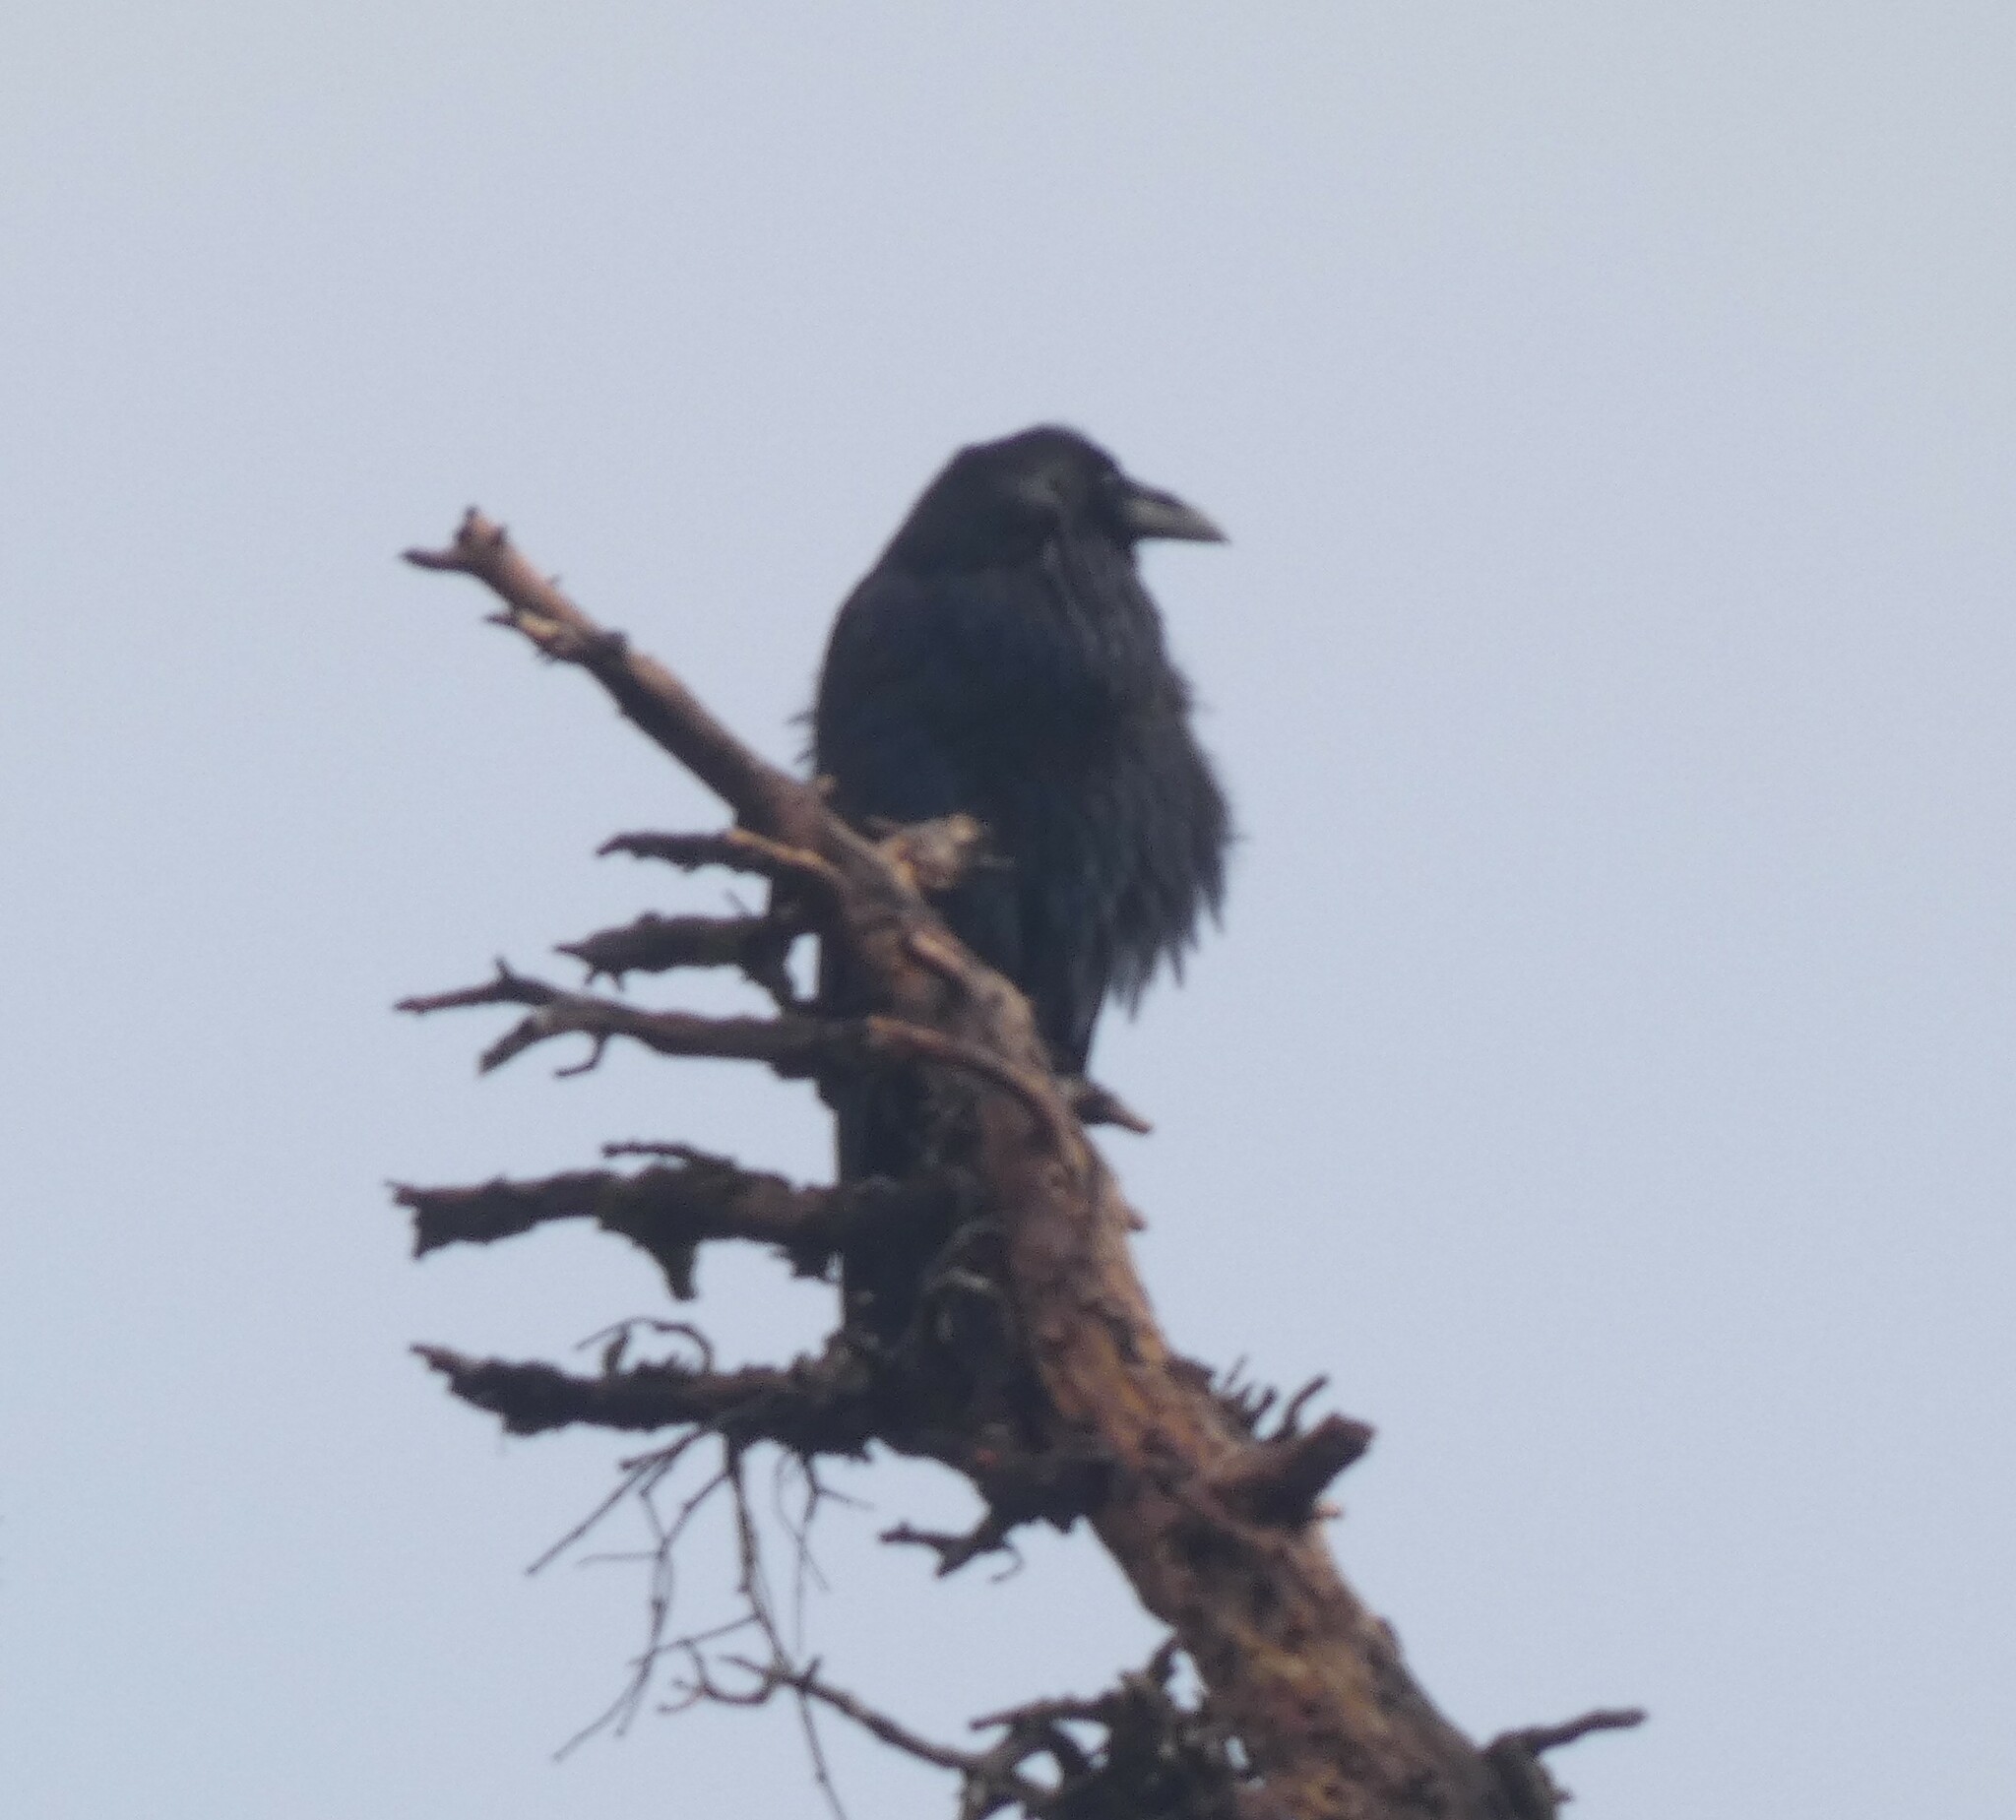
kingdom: Animalia
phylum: Chordata
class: Aves
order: Passeriformes
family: Corvidae
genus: Corvus
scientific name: Corvus corax
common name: Common raven
